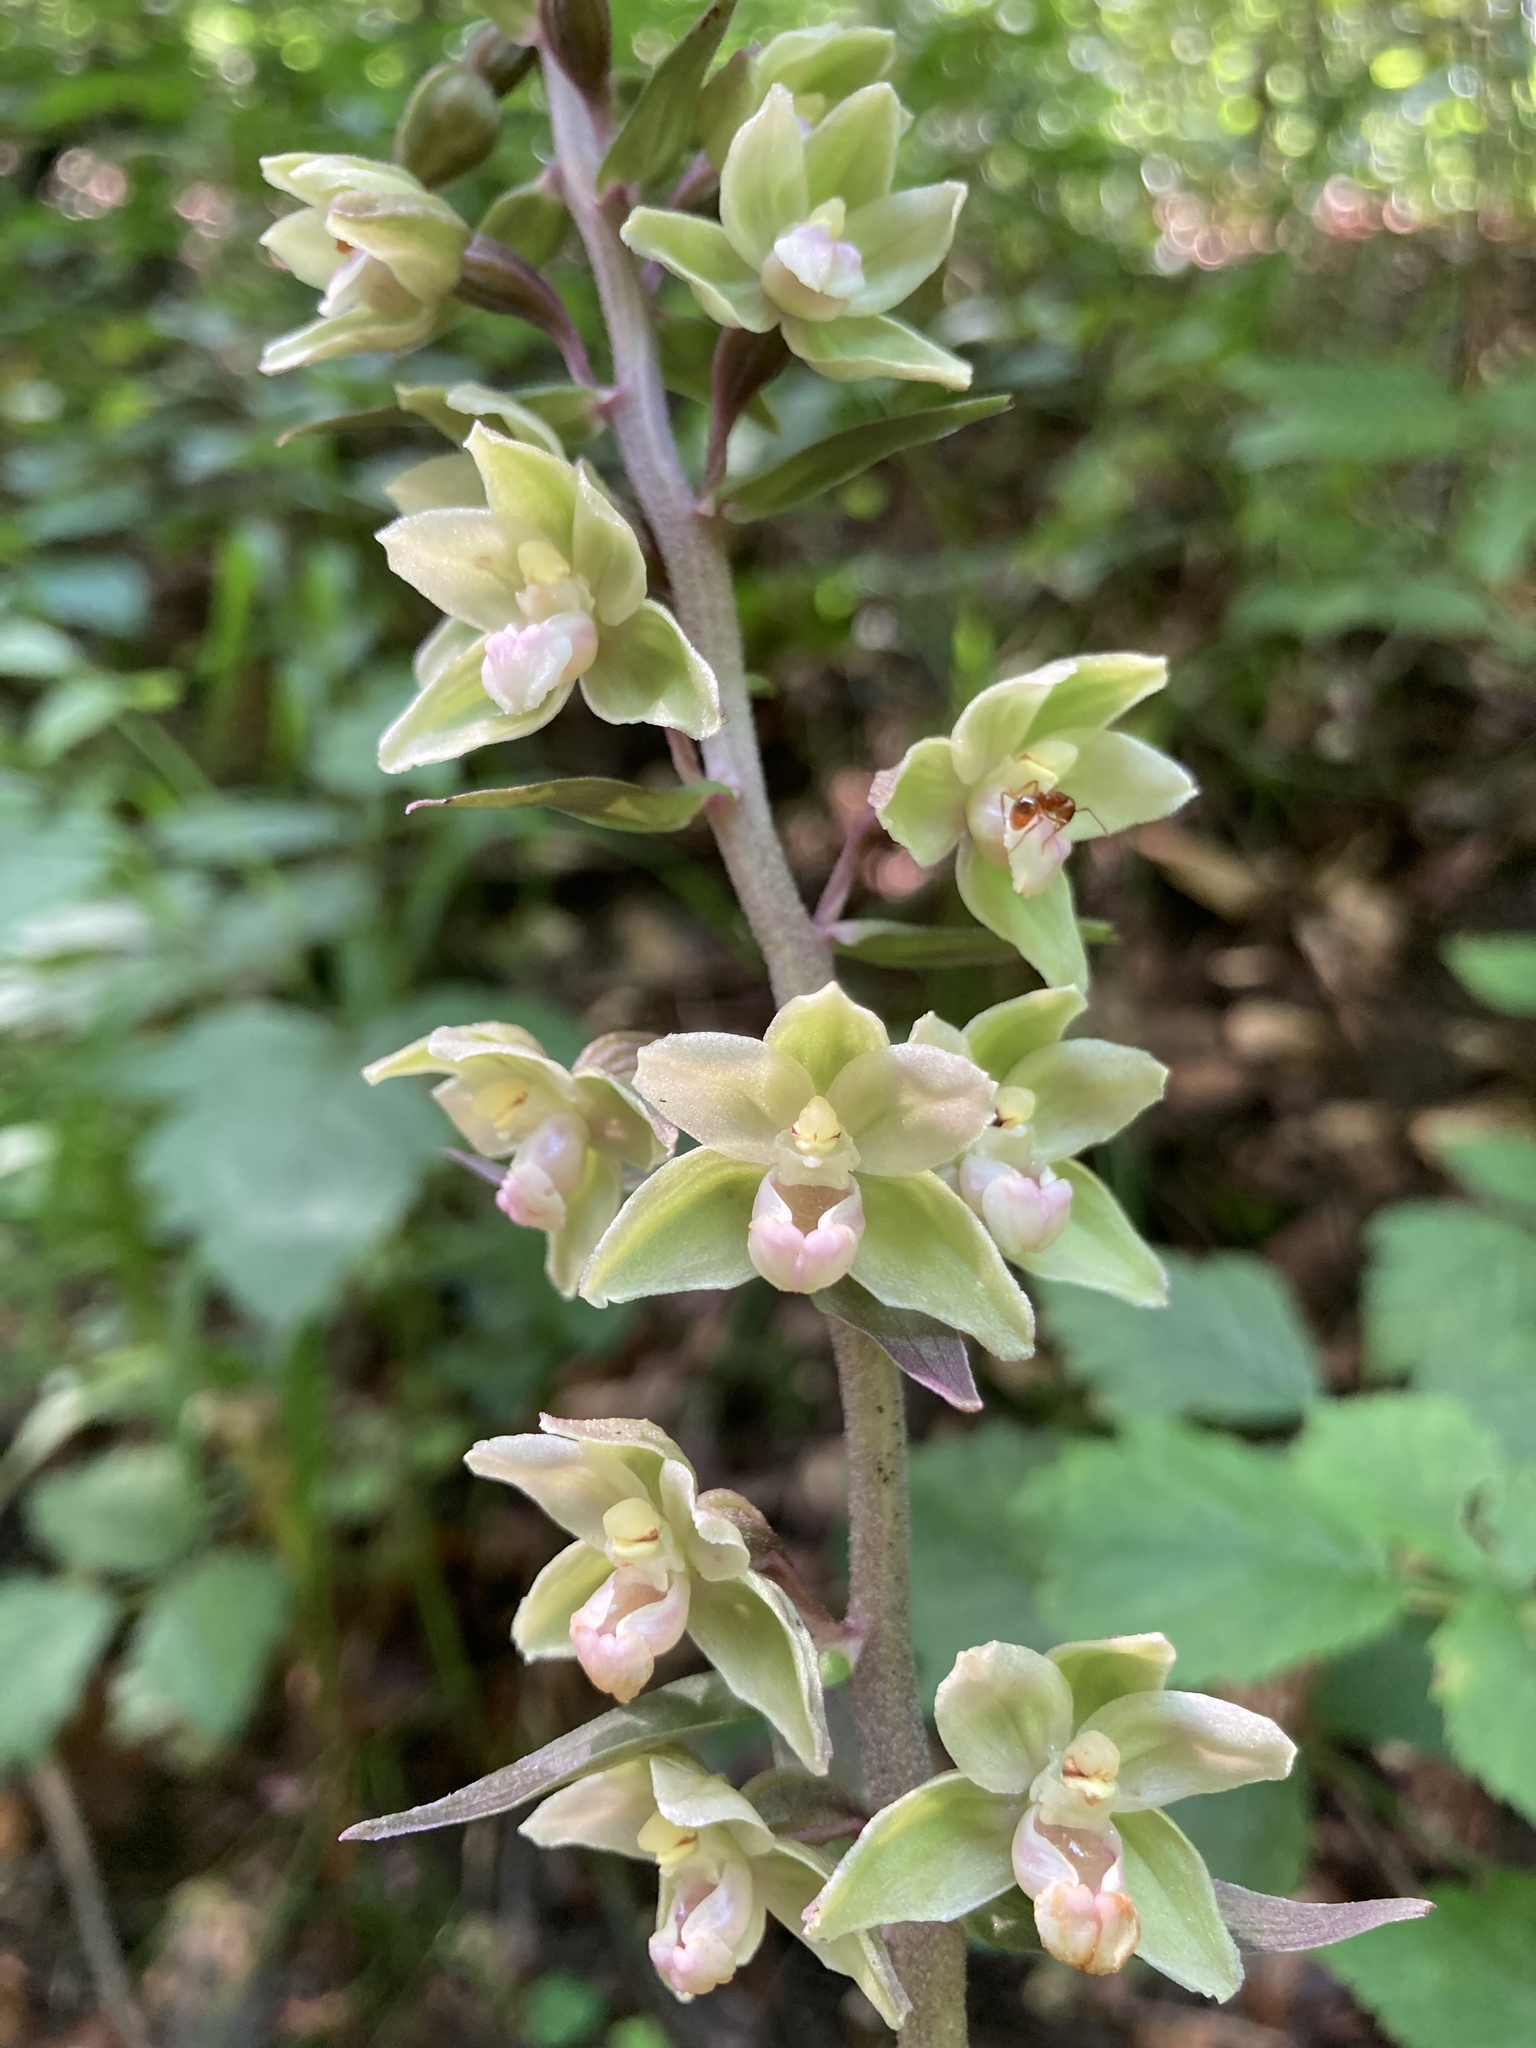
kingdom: Plantae
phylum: Tracheophyta
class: Liliopsida
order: Asparagales
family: Orchidaceae
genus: Epipactis
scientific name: Epipactis purpurata
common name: Violet helleborine
